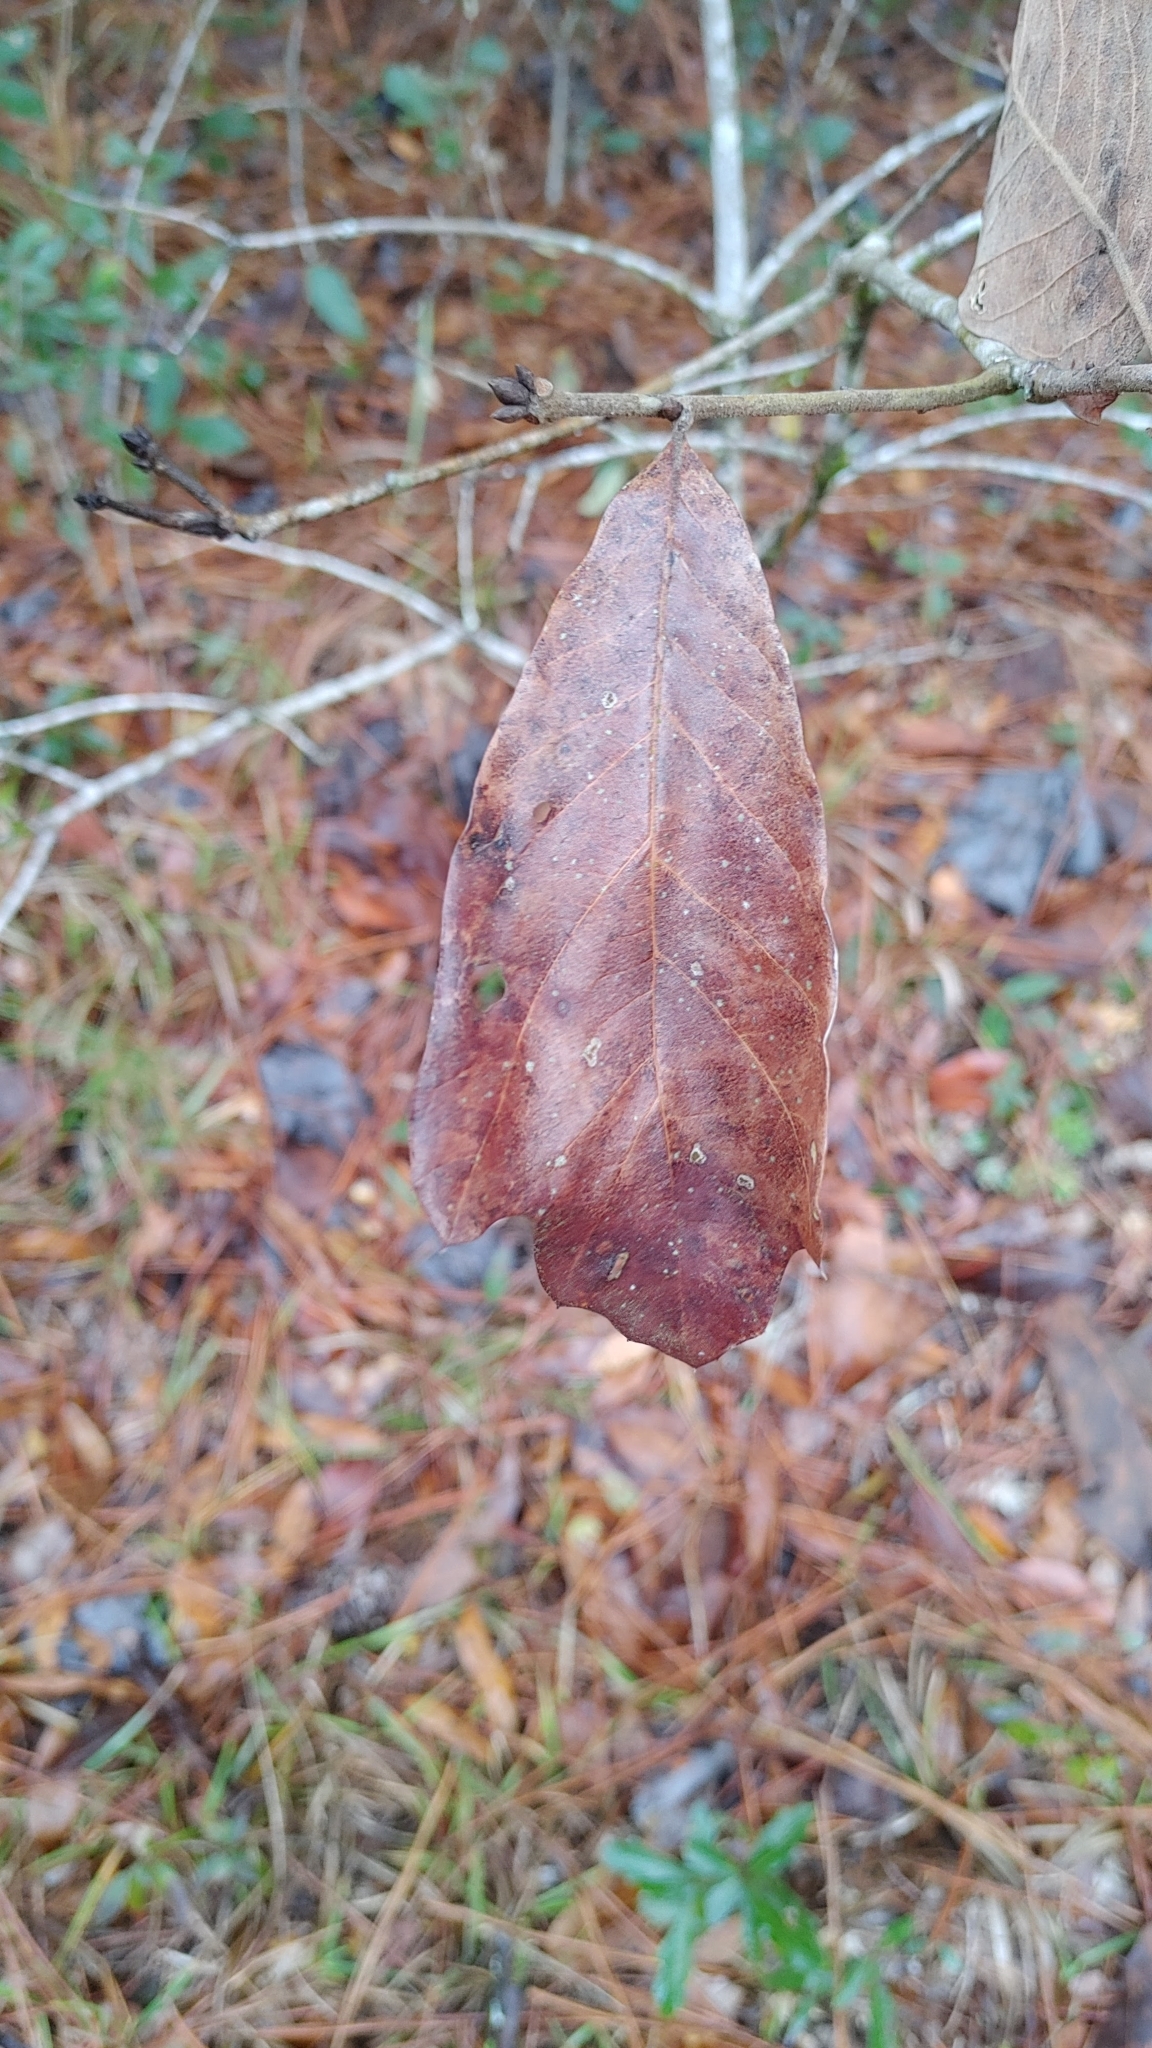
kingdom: Plantae
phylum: Tracheophyta
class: Magnoliopsida
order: Fagales
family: Fagaceae
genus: Quercus
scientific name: Quercus falcata
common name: Southern red oak
